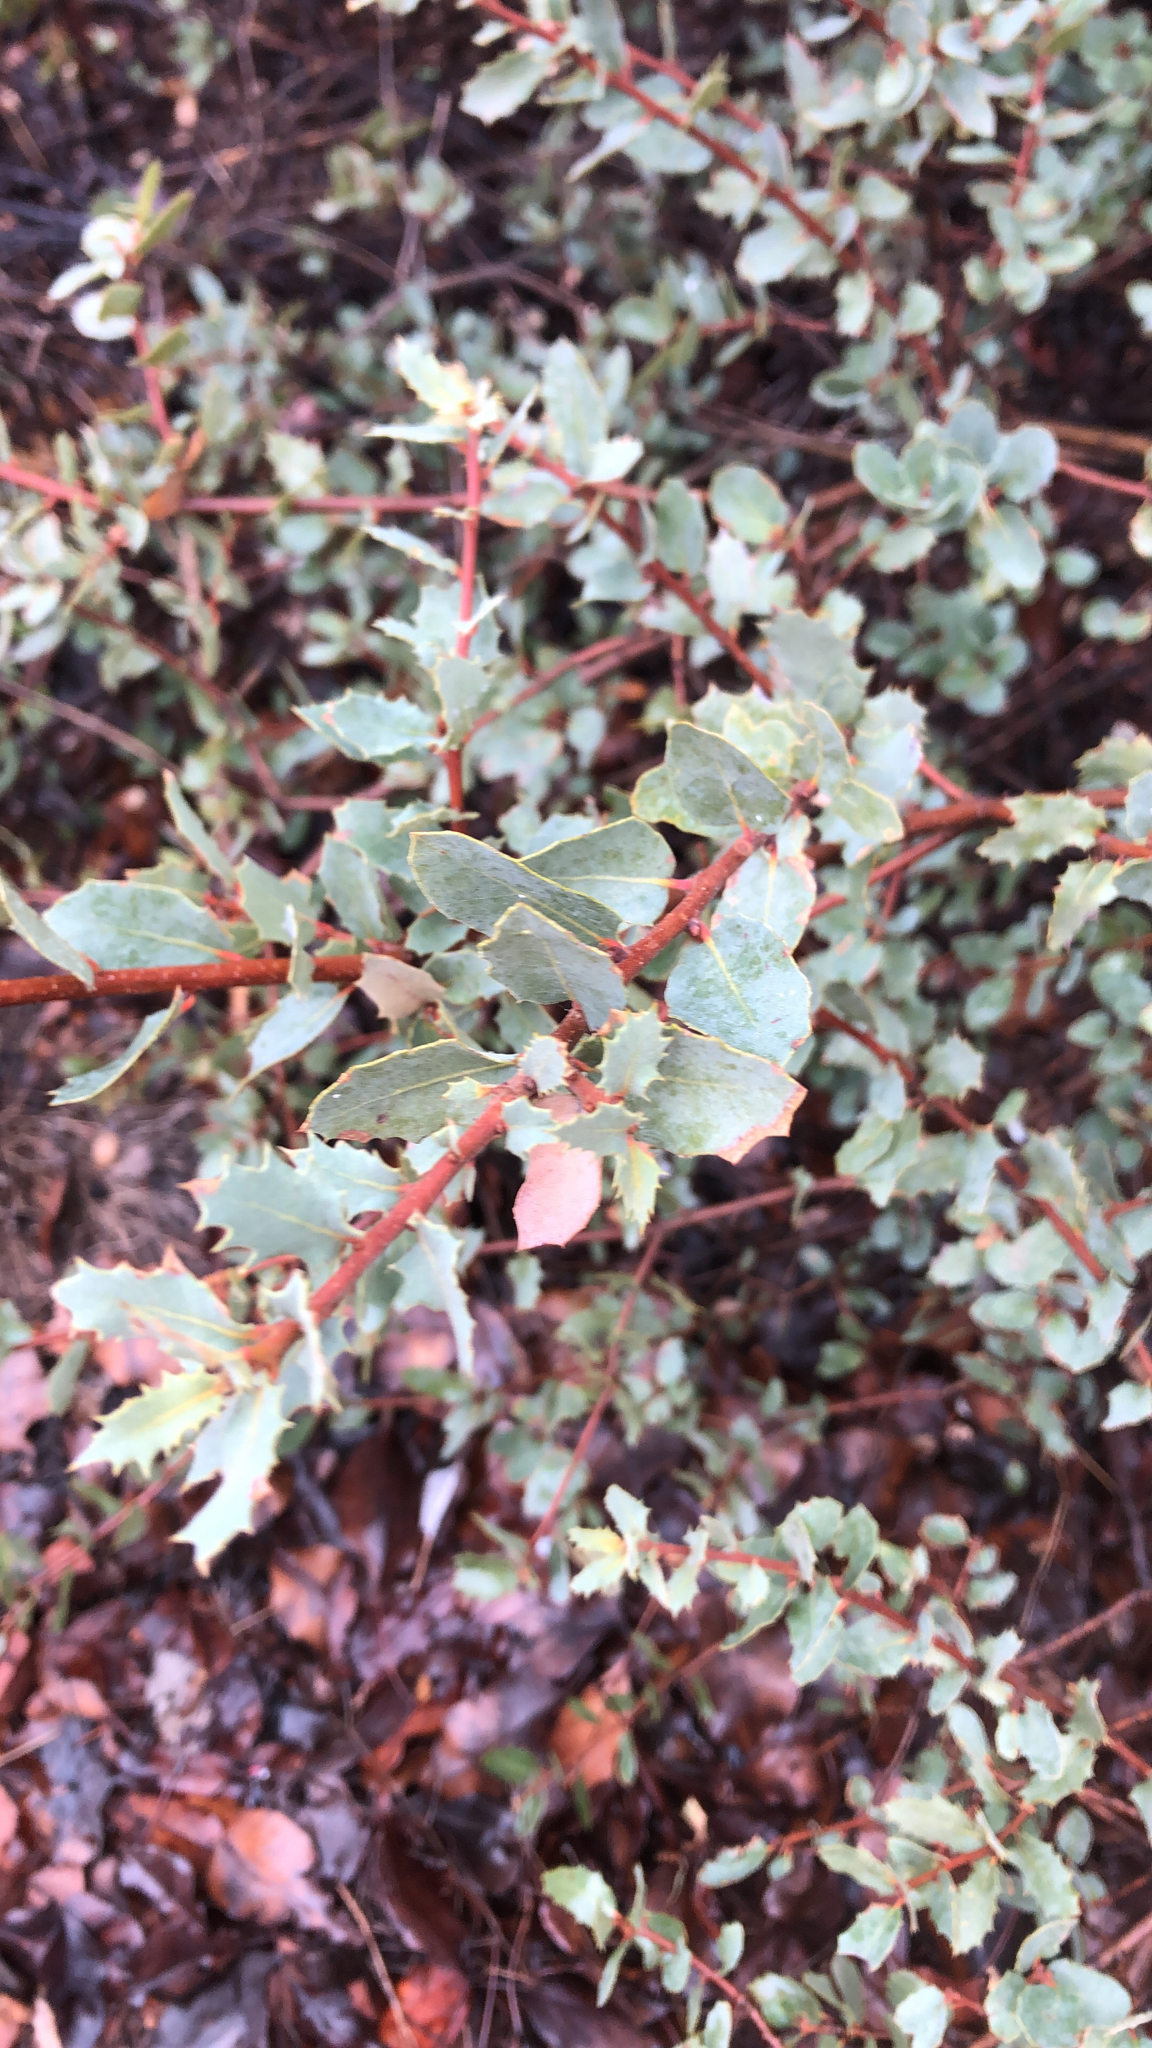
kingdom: Plantae
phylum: Tracheophyta
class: Magnoliopsida
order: Fagales
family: Fagaceae
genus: Quercus
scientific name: Quercus turbinella
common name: Sonoran scrub oak
